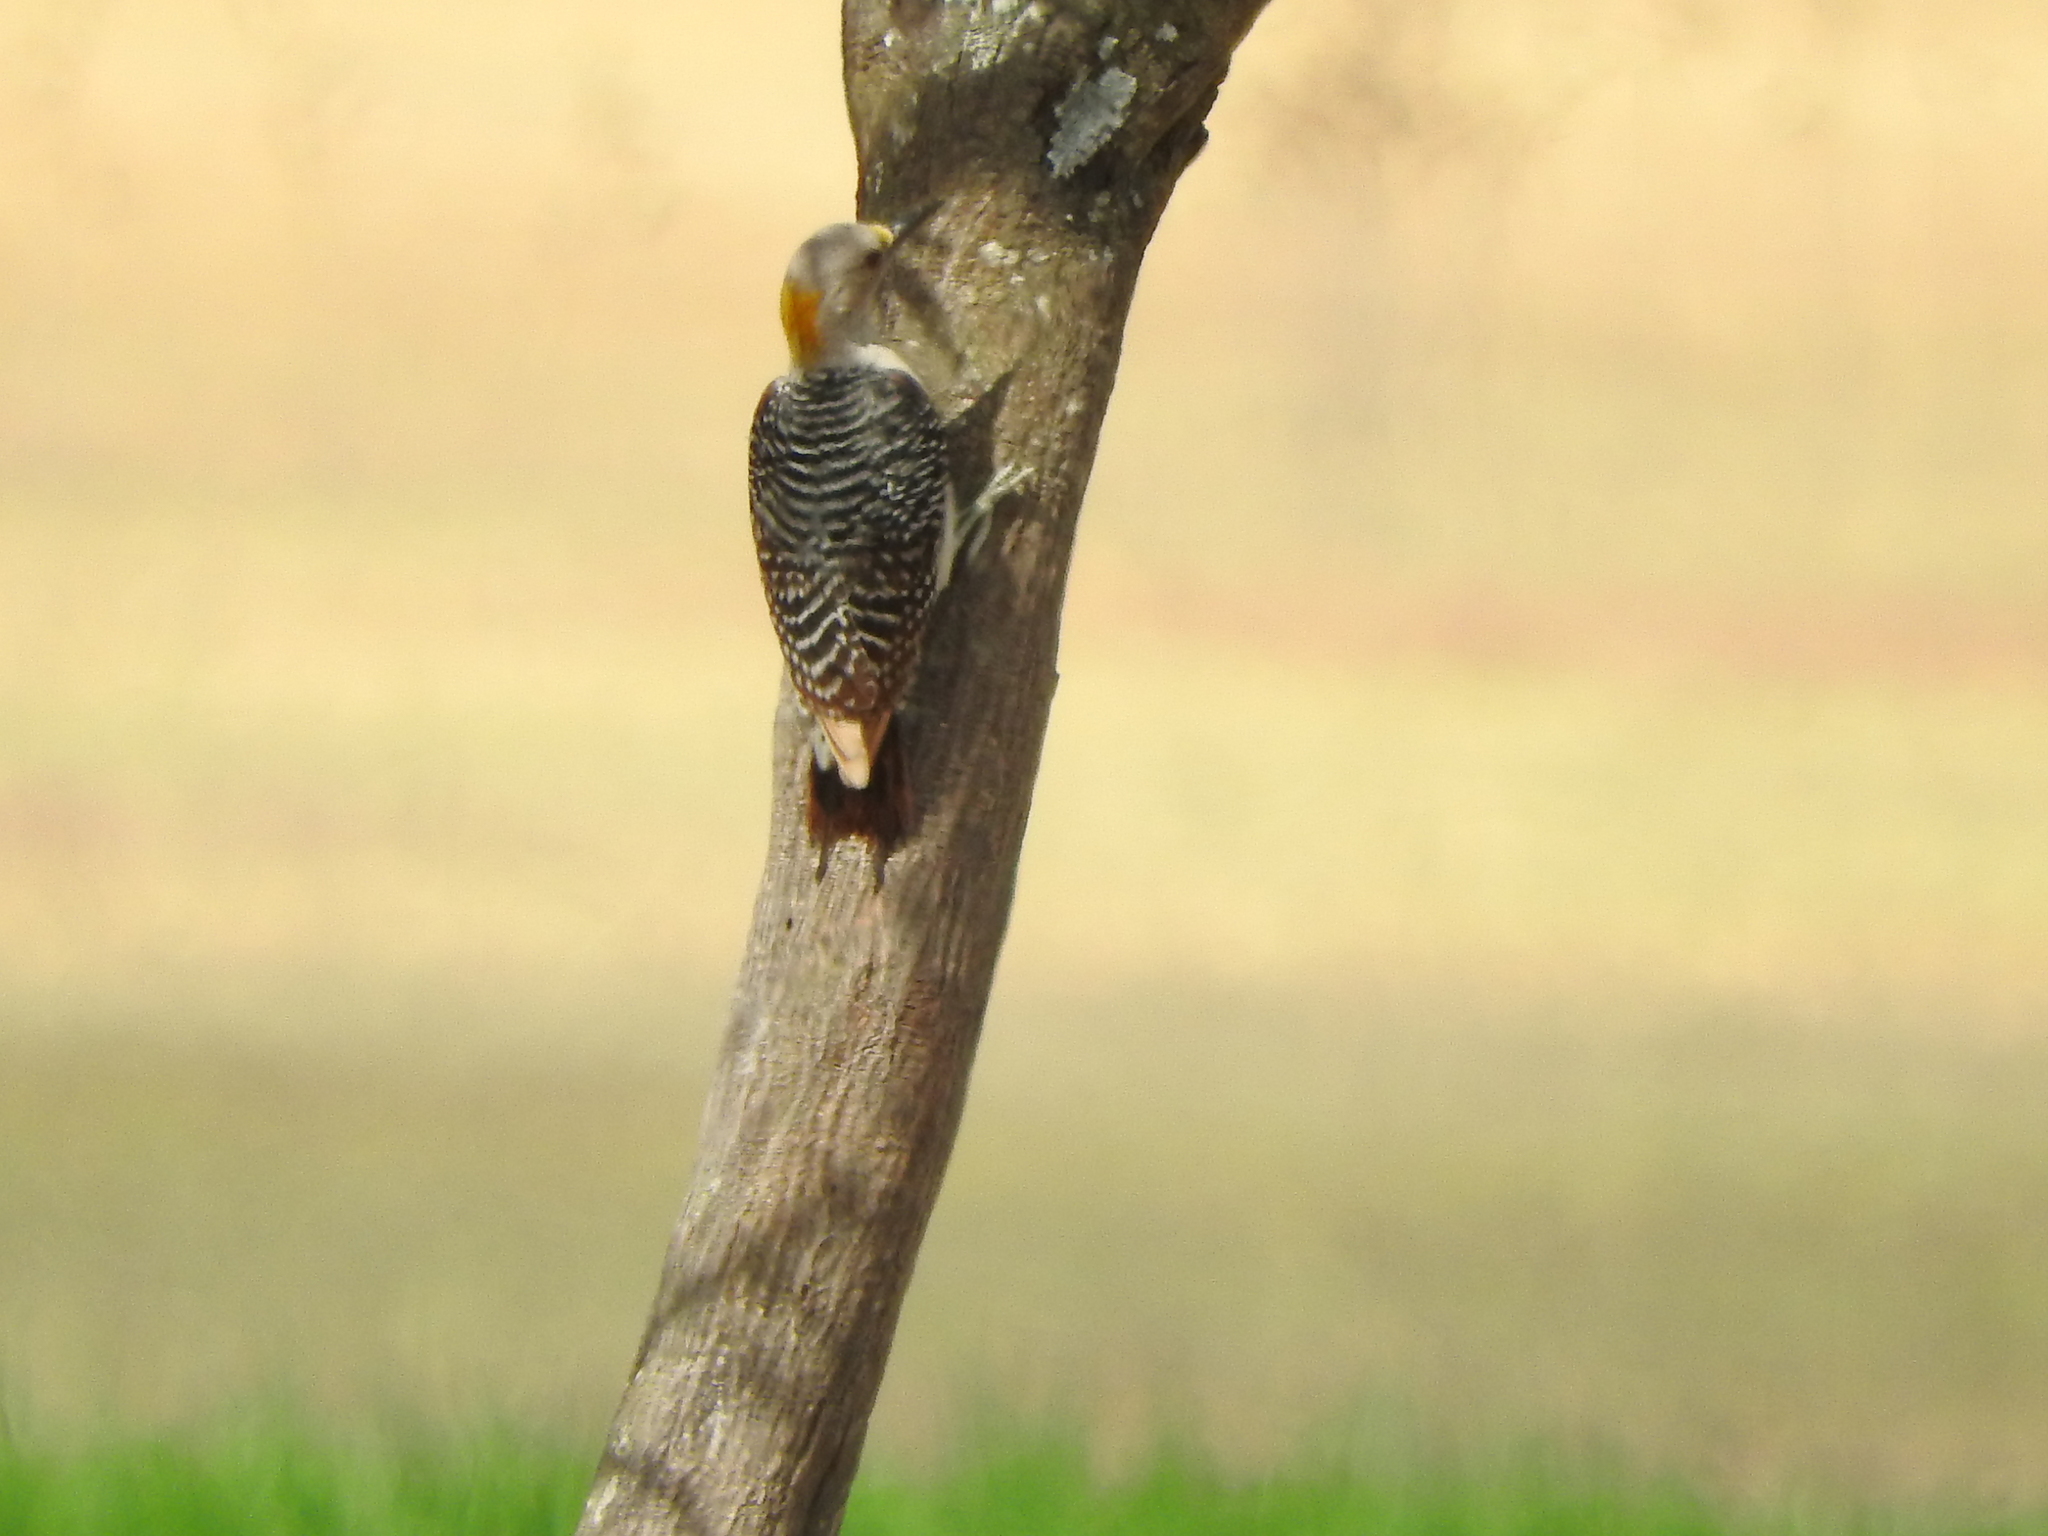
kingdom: Animalia
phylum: Chordata
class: Aves
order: Piciformes
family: Picidae
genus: Melanerpes
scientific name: Melanerpes aurifrons
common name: Golden-fronted woodpecker
